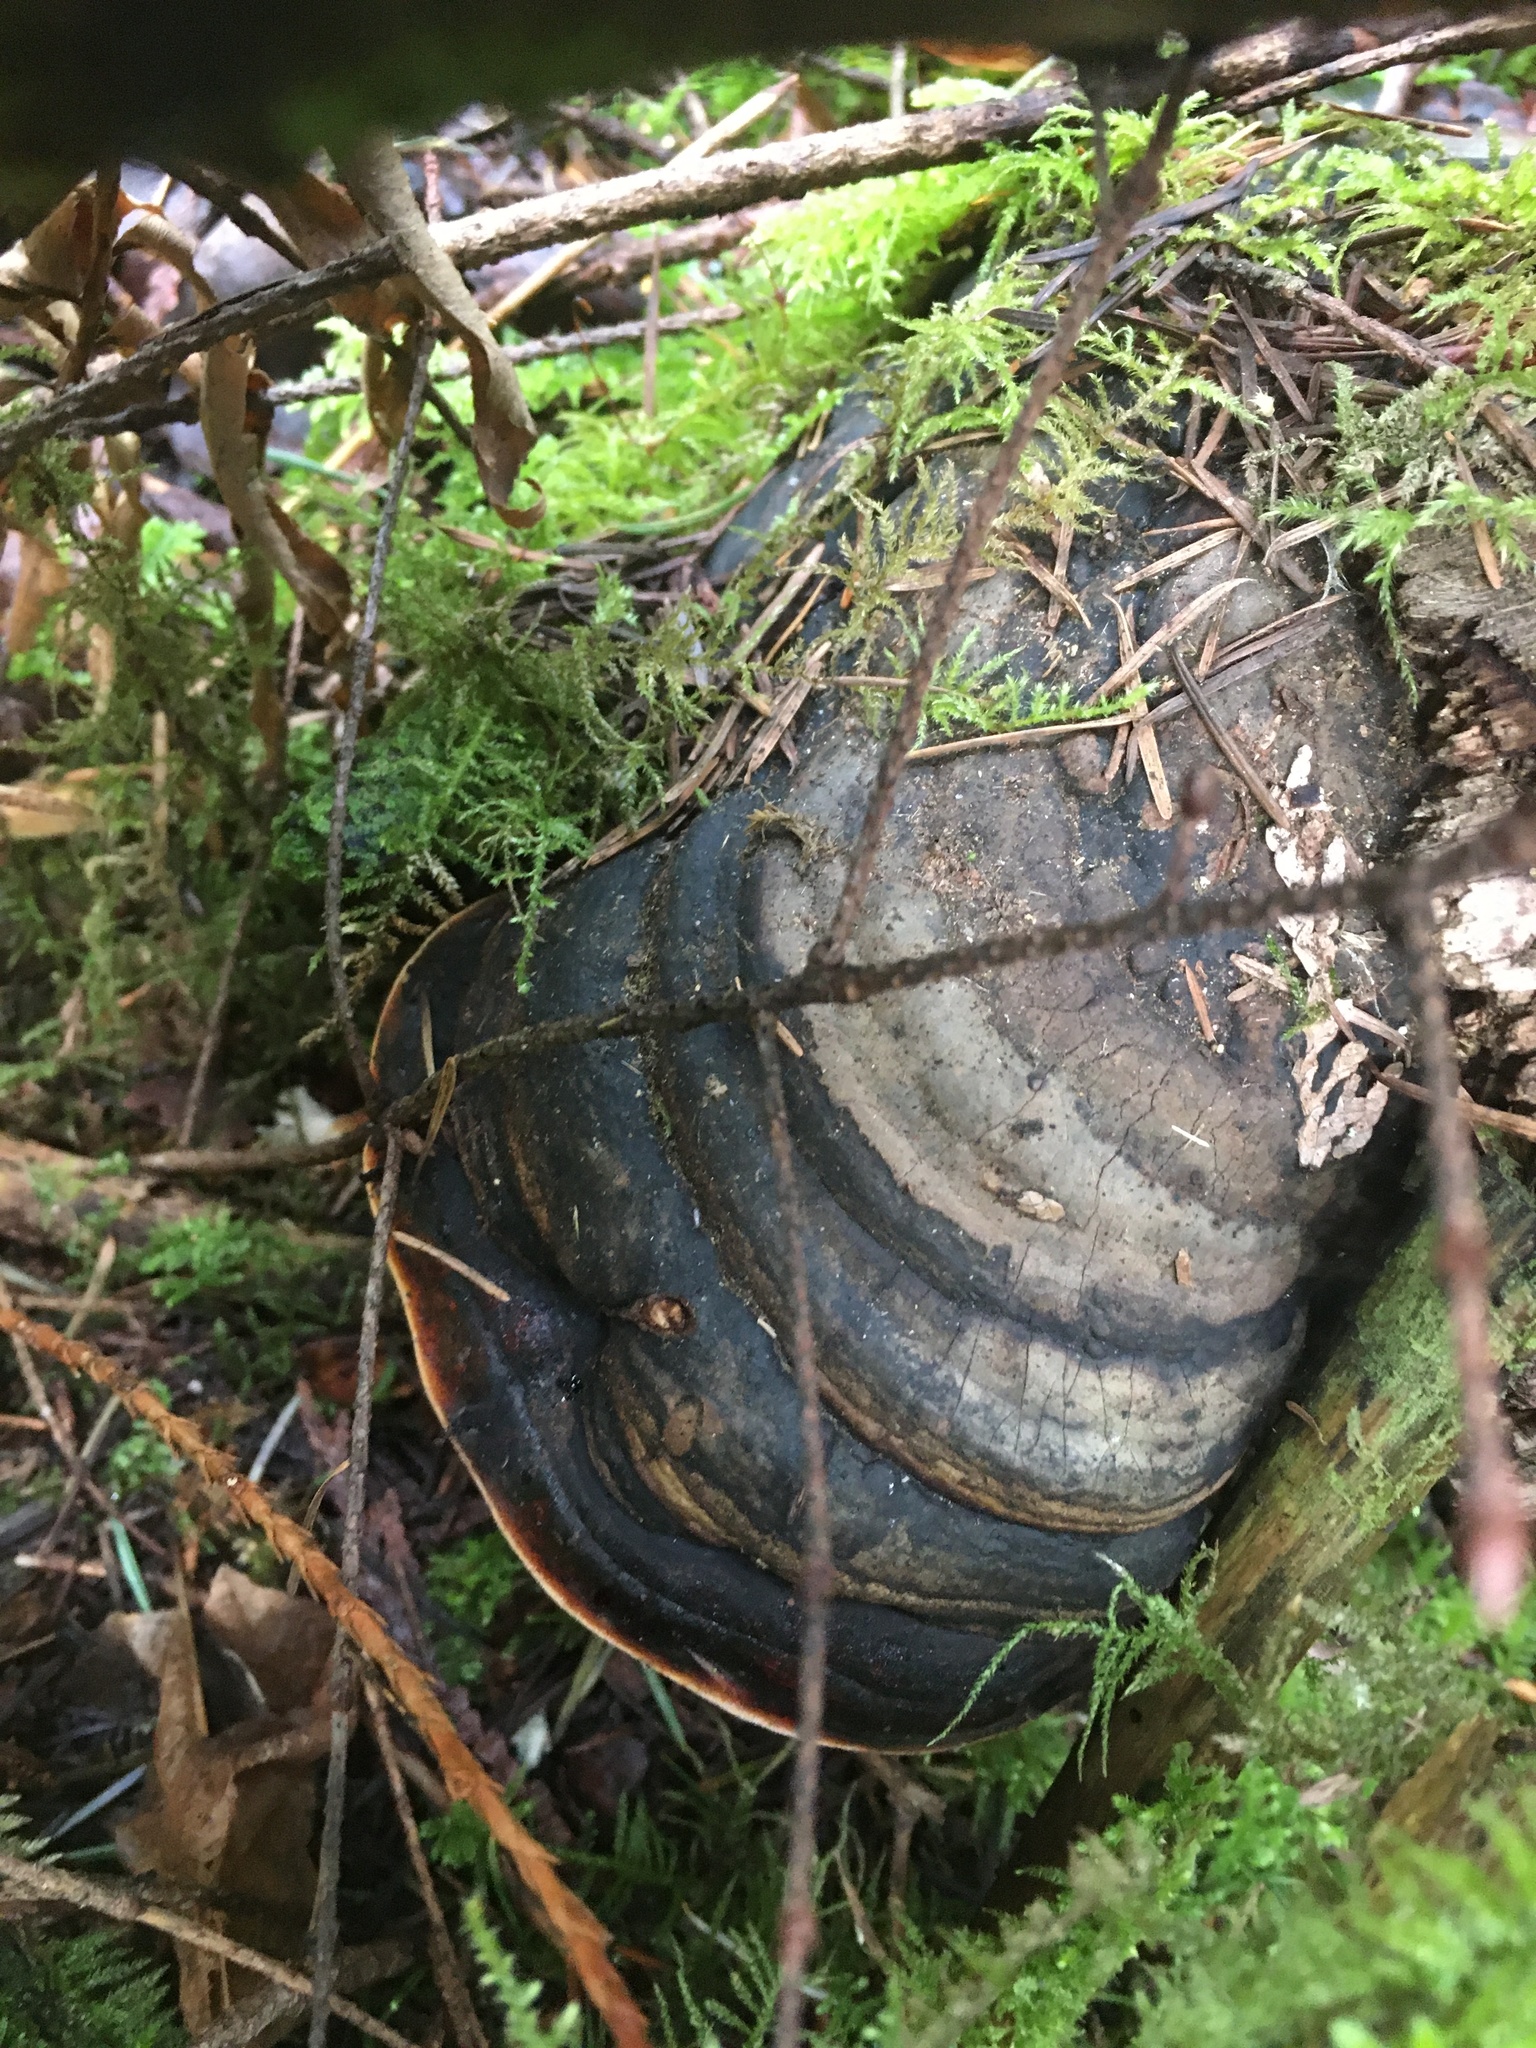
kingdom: Fungi
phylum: Basidiomycota
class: Agaricomycetes
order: Polyporales
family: Fomitopsidaceae
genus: Fomitopsis
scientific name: Fomitopsis mounceae
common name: Northern red belt
